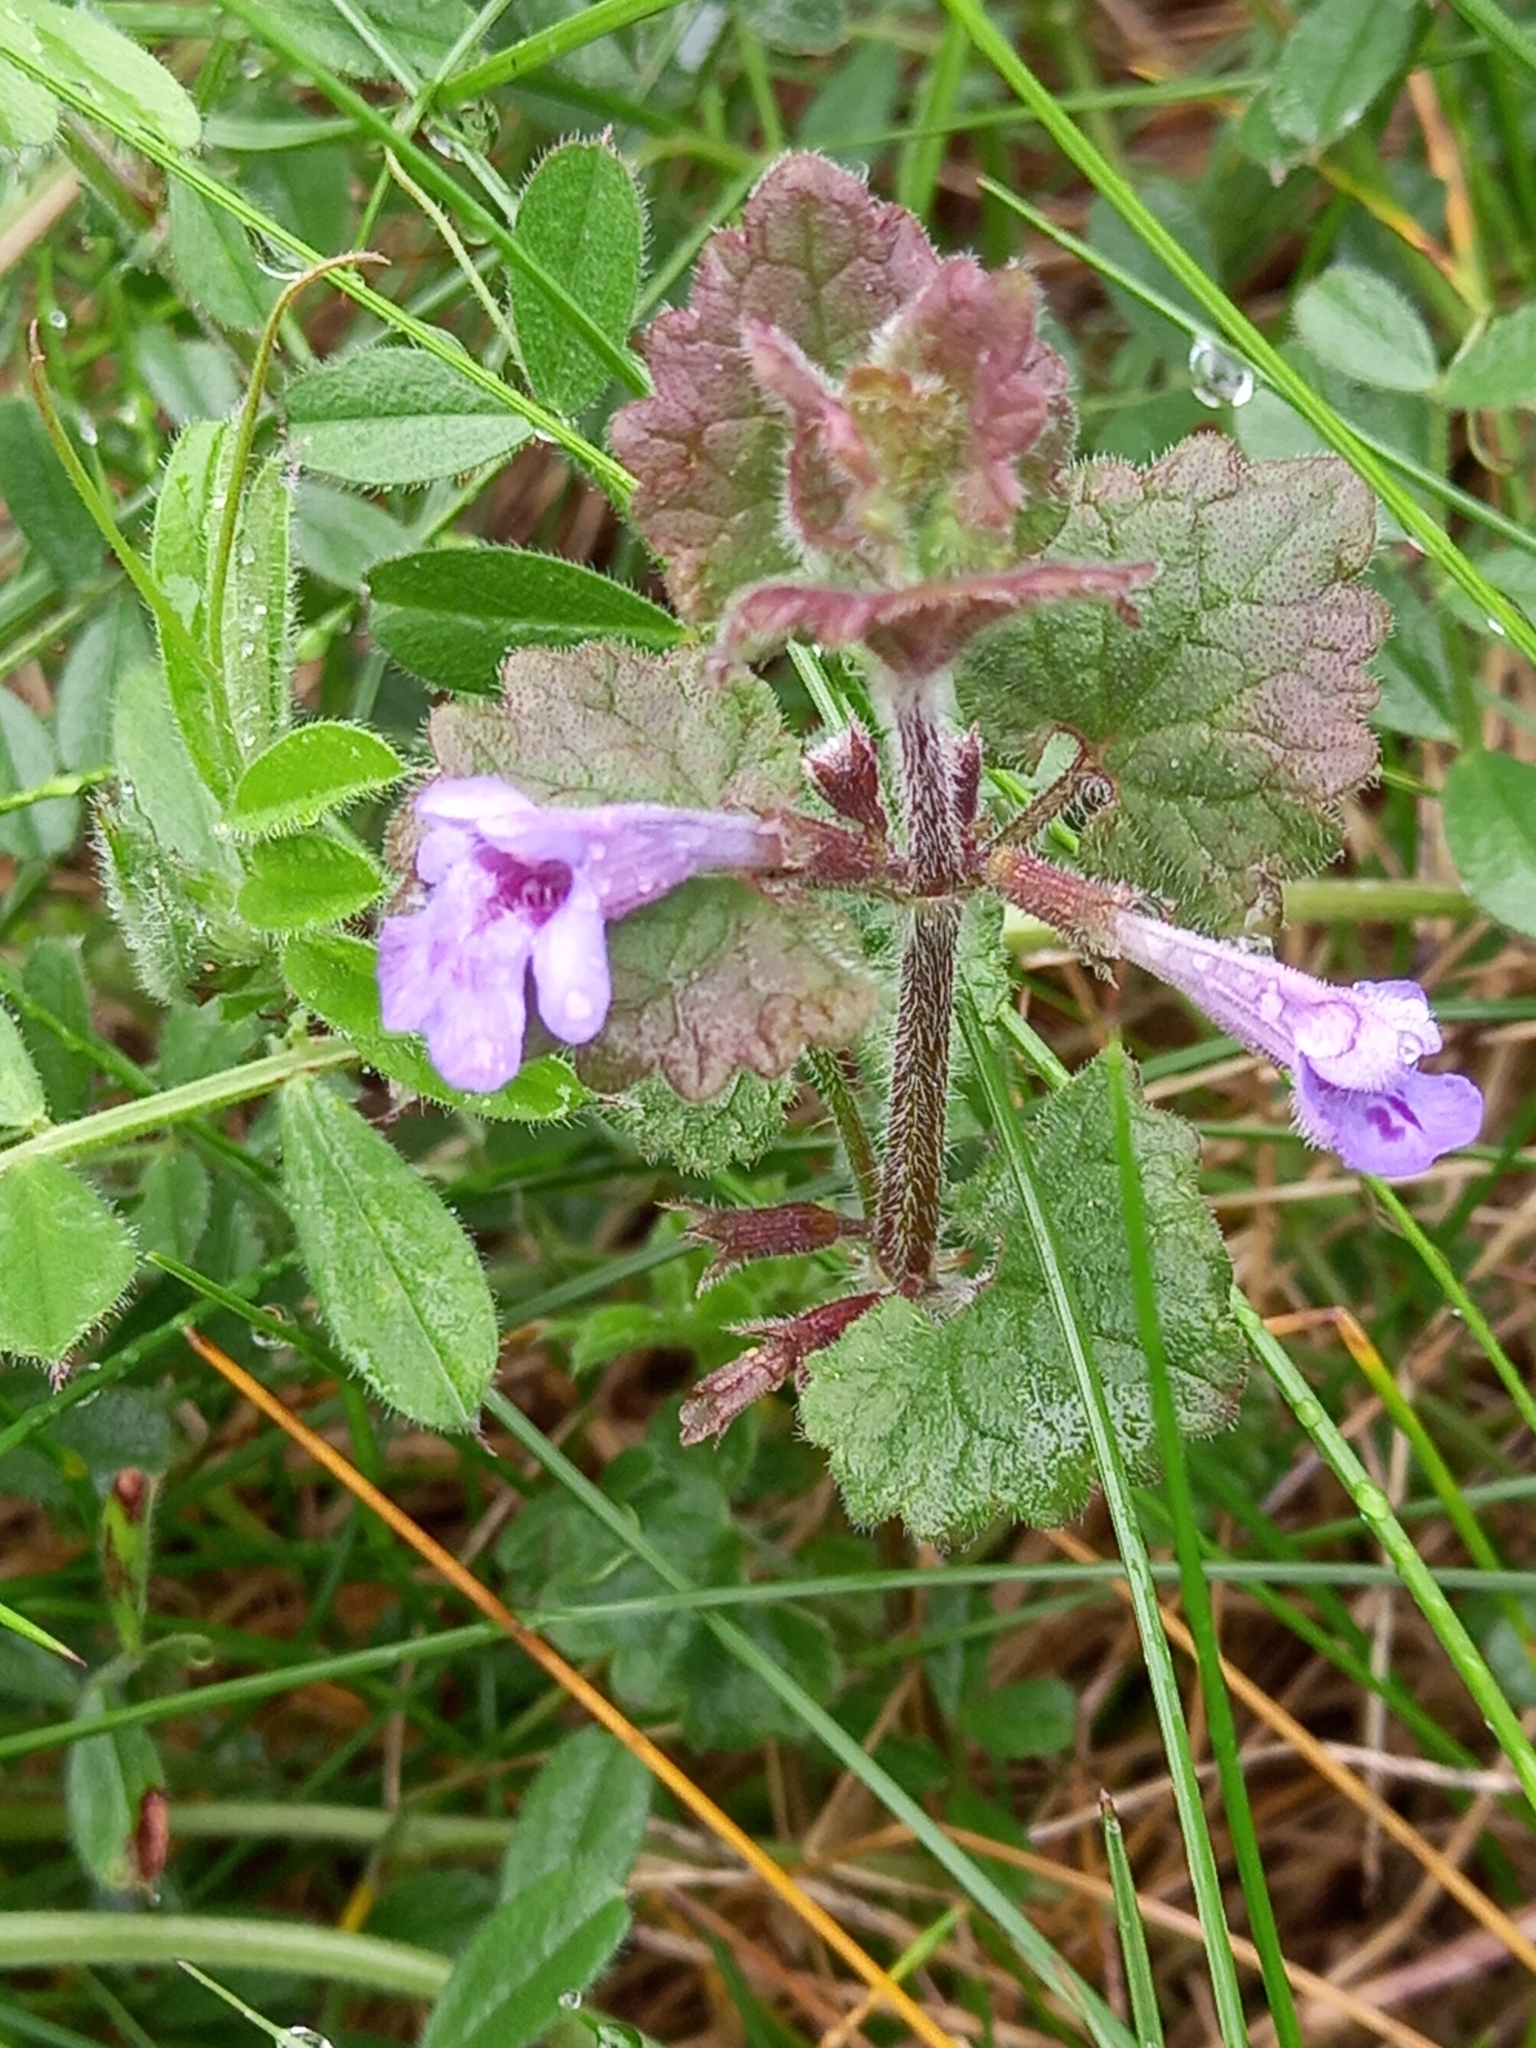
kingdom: Plantae
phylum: Tracheophyta
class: Magnoliopsida
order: Lamiales
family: Lamiaceae
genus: Glechoma
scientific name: Glechoma hederacea
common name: Ground ivy
